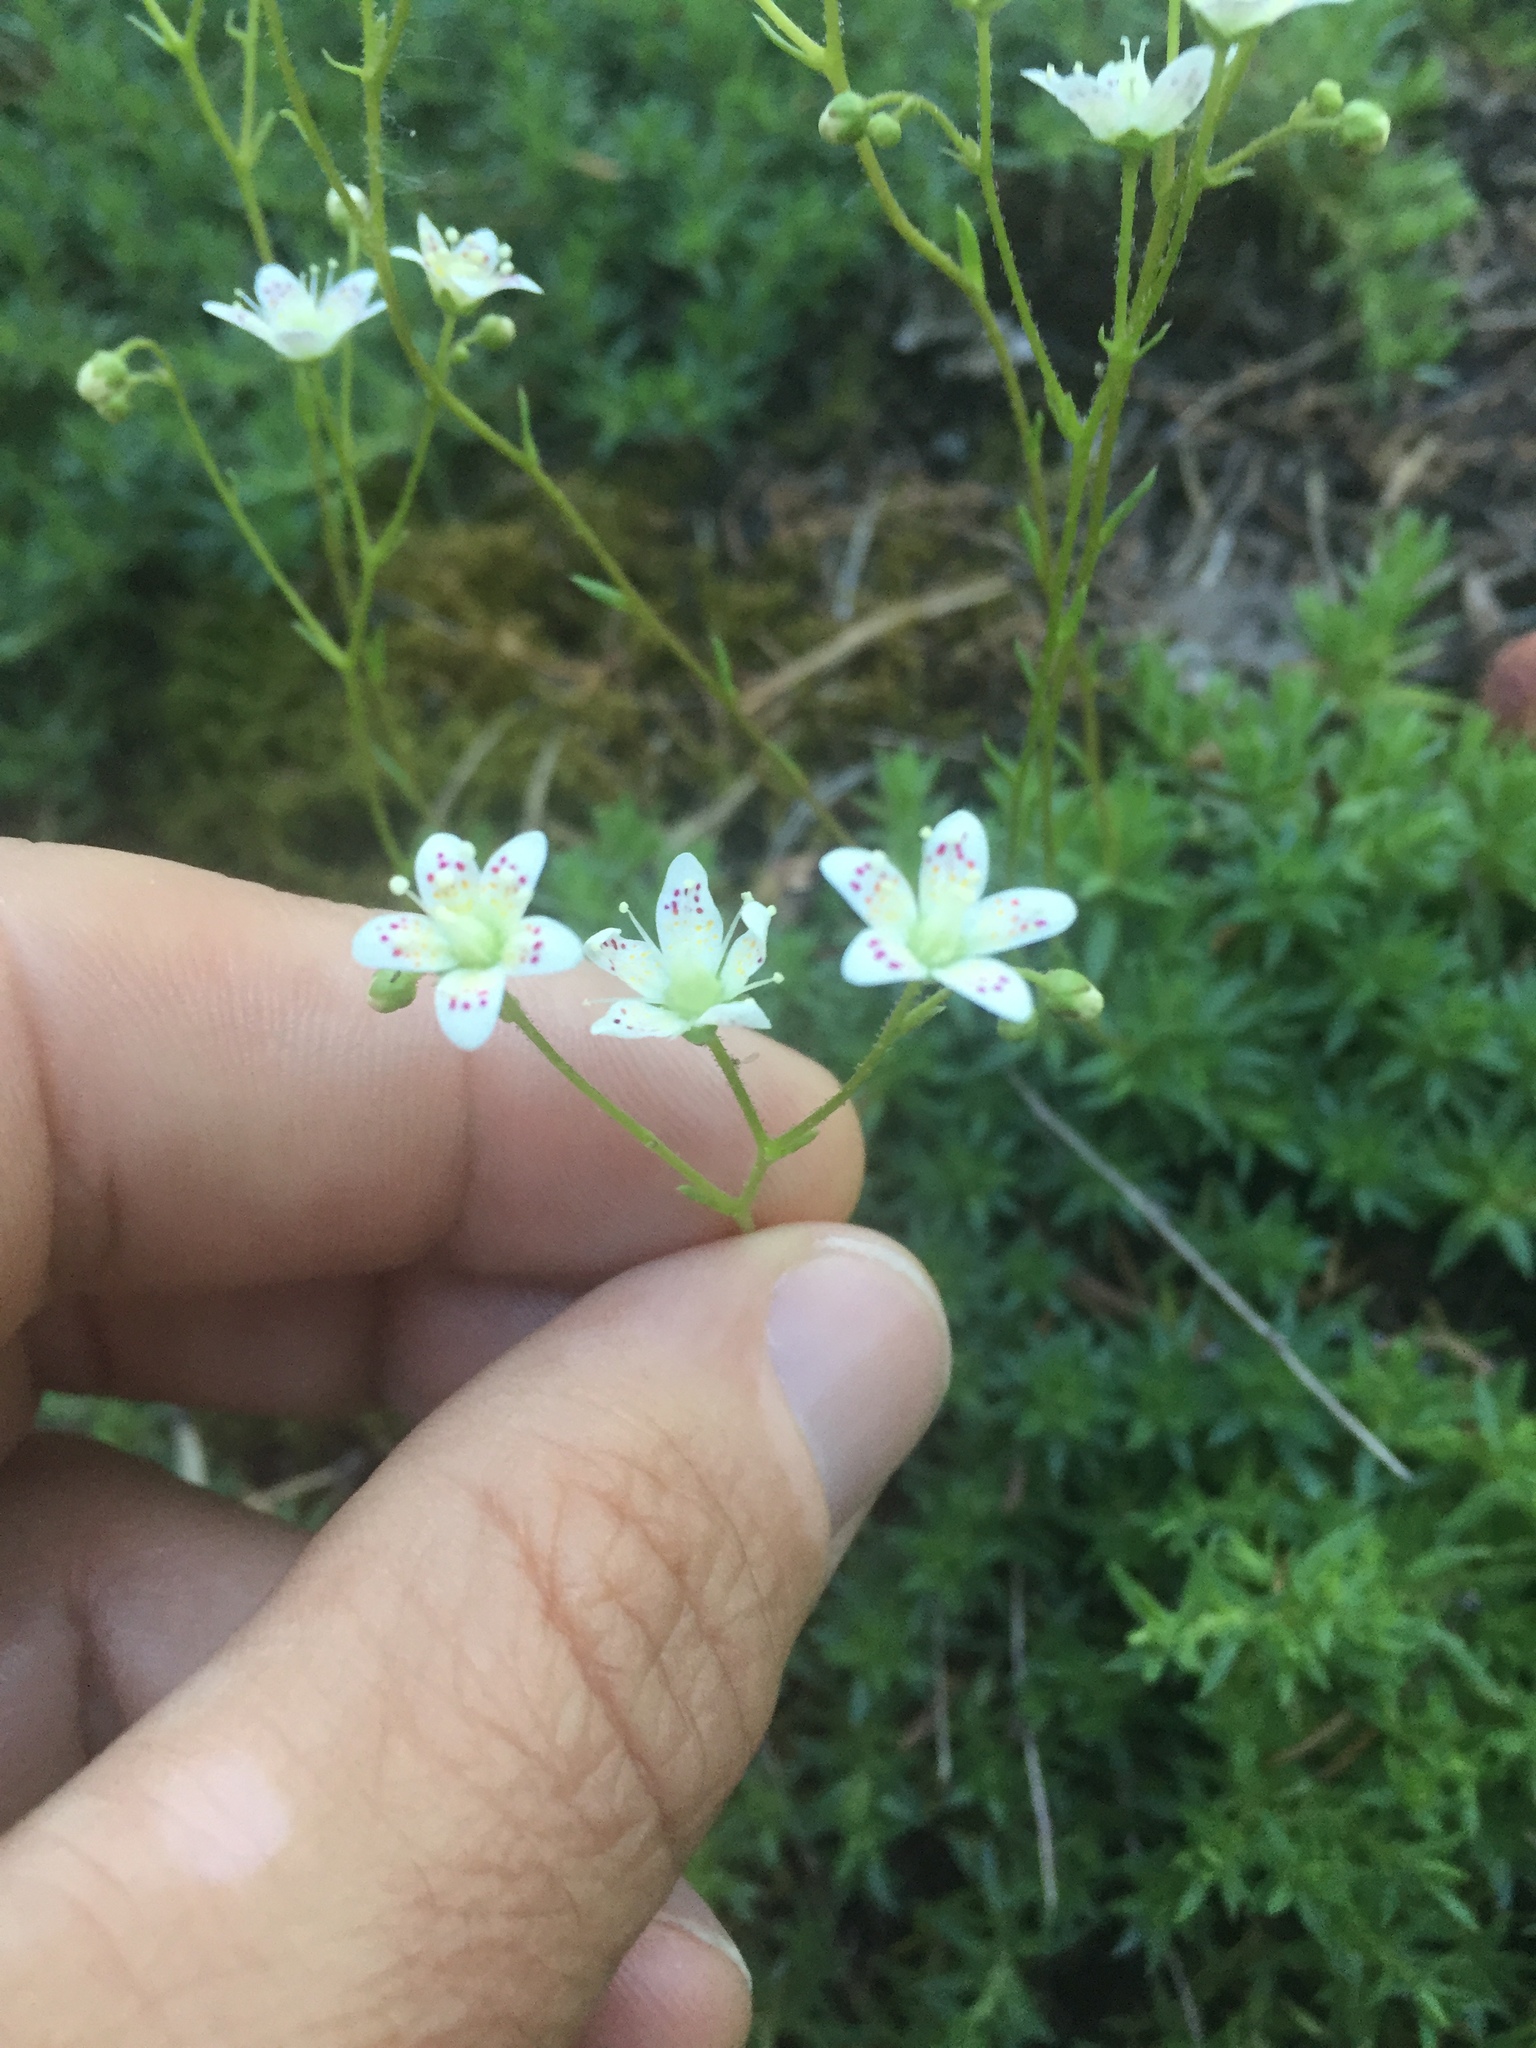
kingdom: Plantae
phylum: Tracheophyta
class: Magnoliopsida
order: Saxifragales
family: Saxifragaceae
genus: Saxifraga
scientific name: Saxifraga bronchialis
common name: Matted saxifrage
